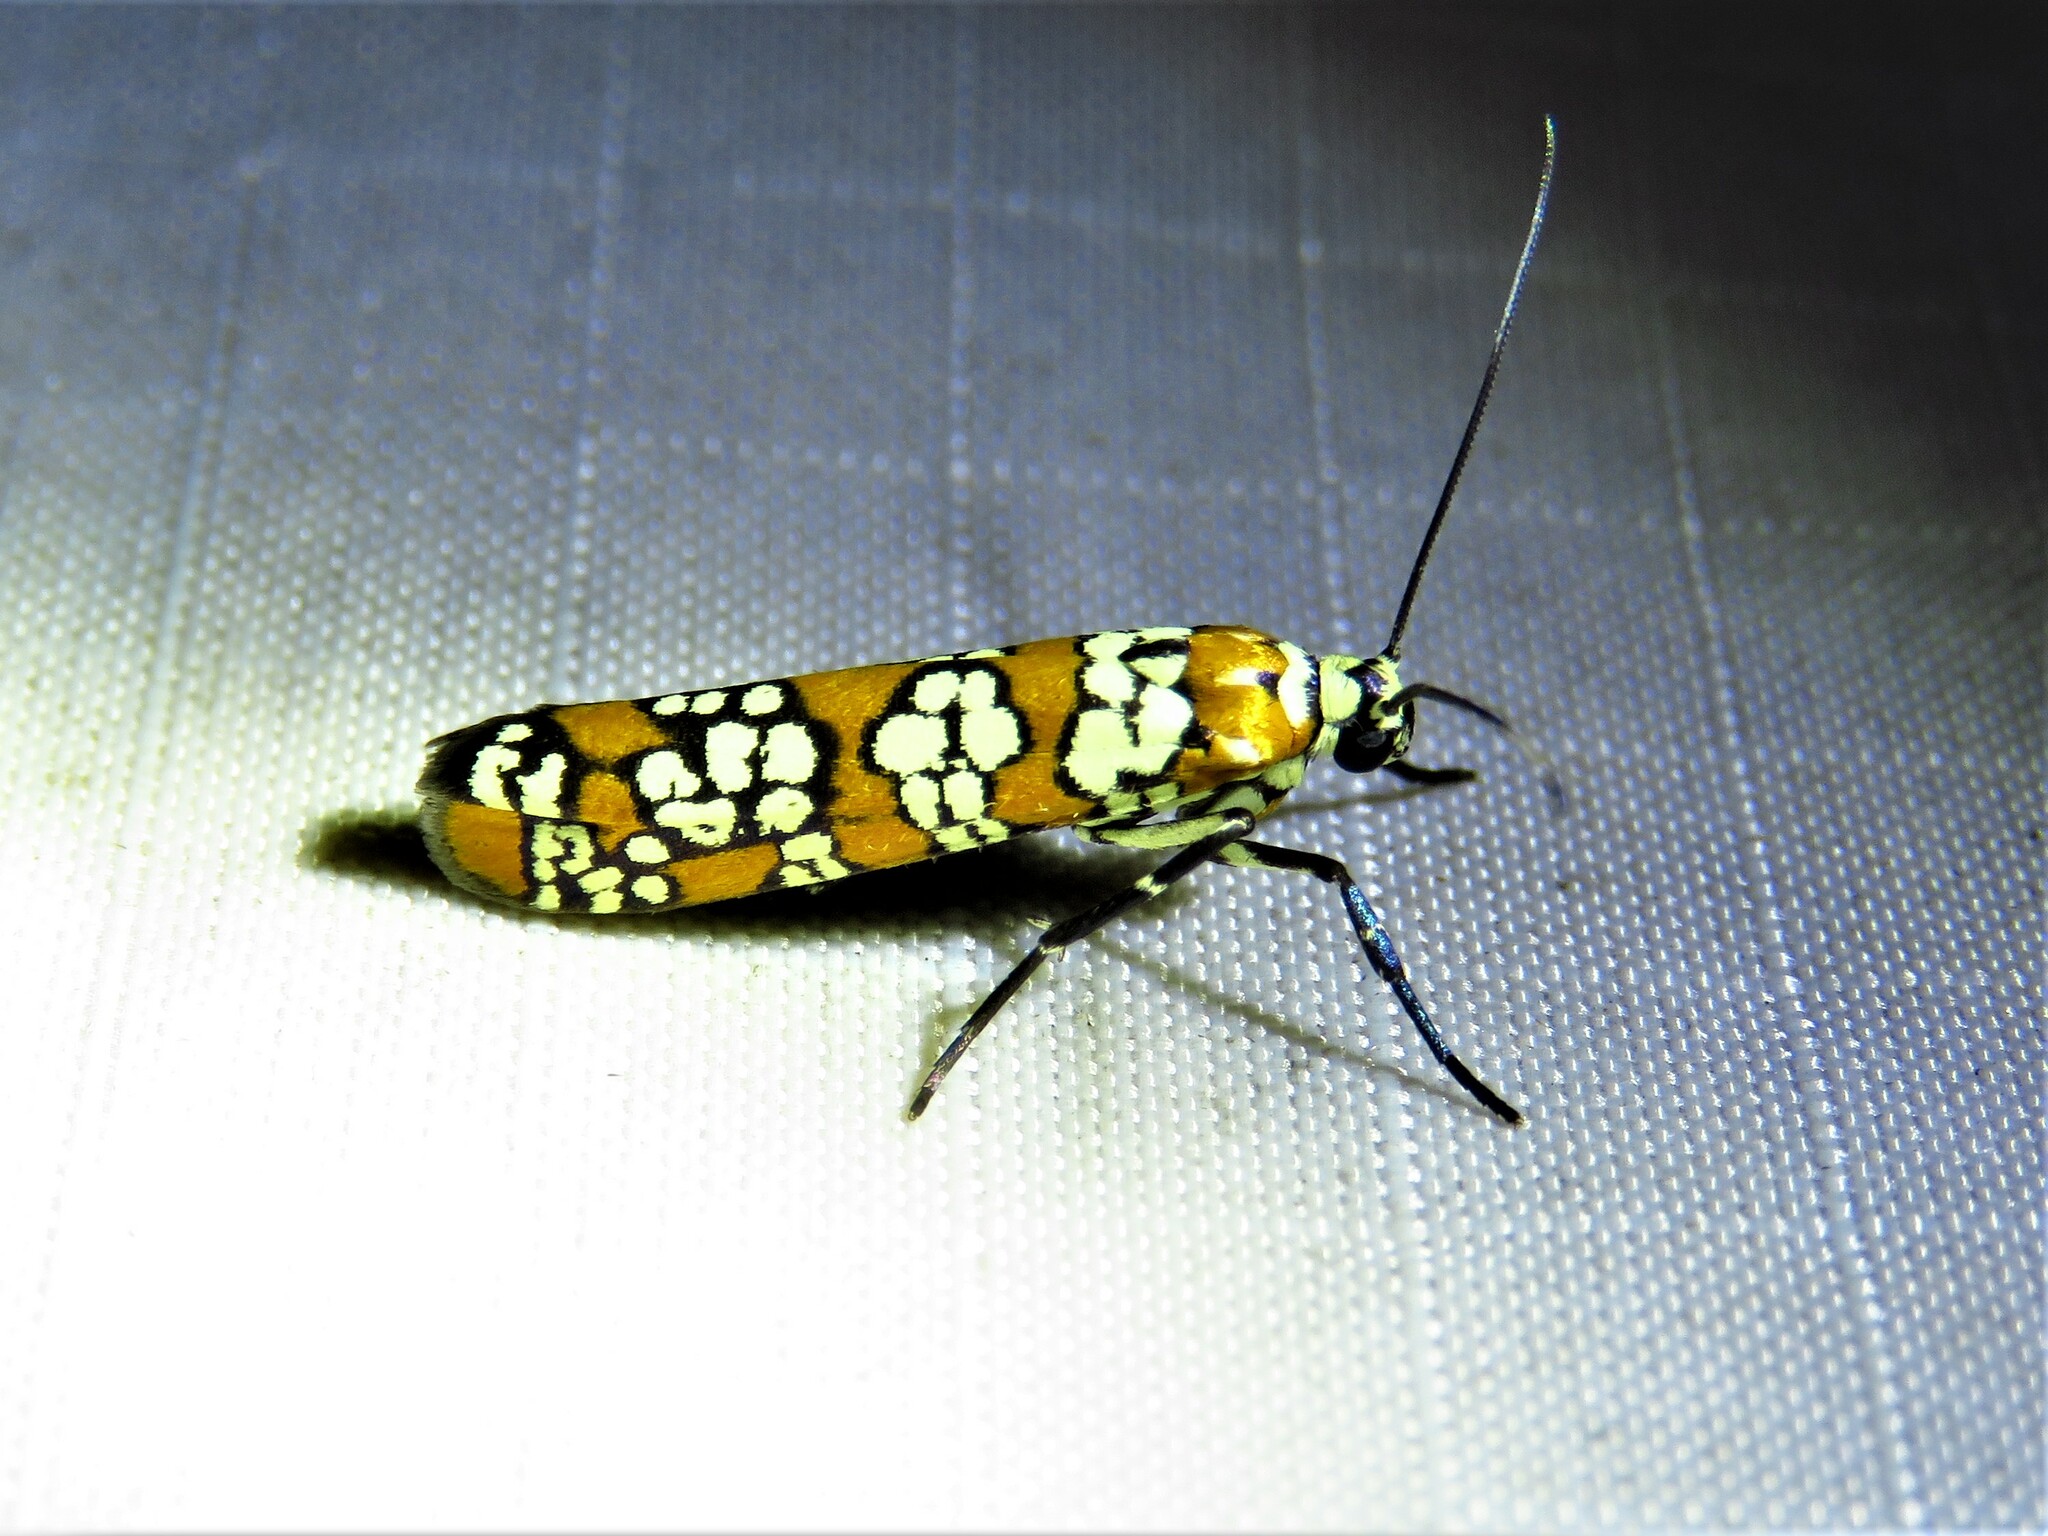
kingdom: Animalia
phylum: Arthropoda
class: Insecta
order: Lepidoptera
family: Attevidae
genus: Atteva
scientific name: Atteva punctella
